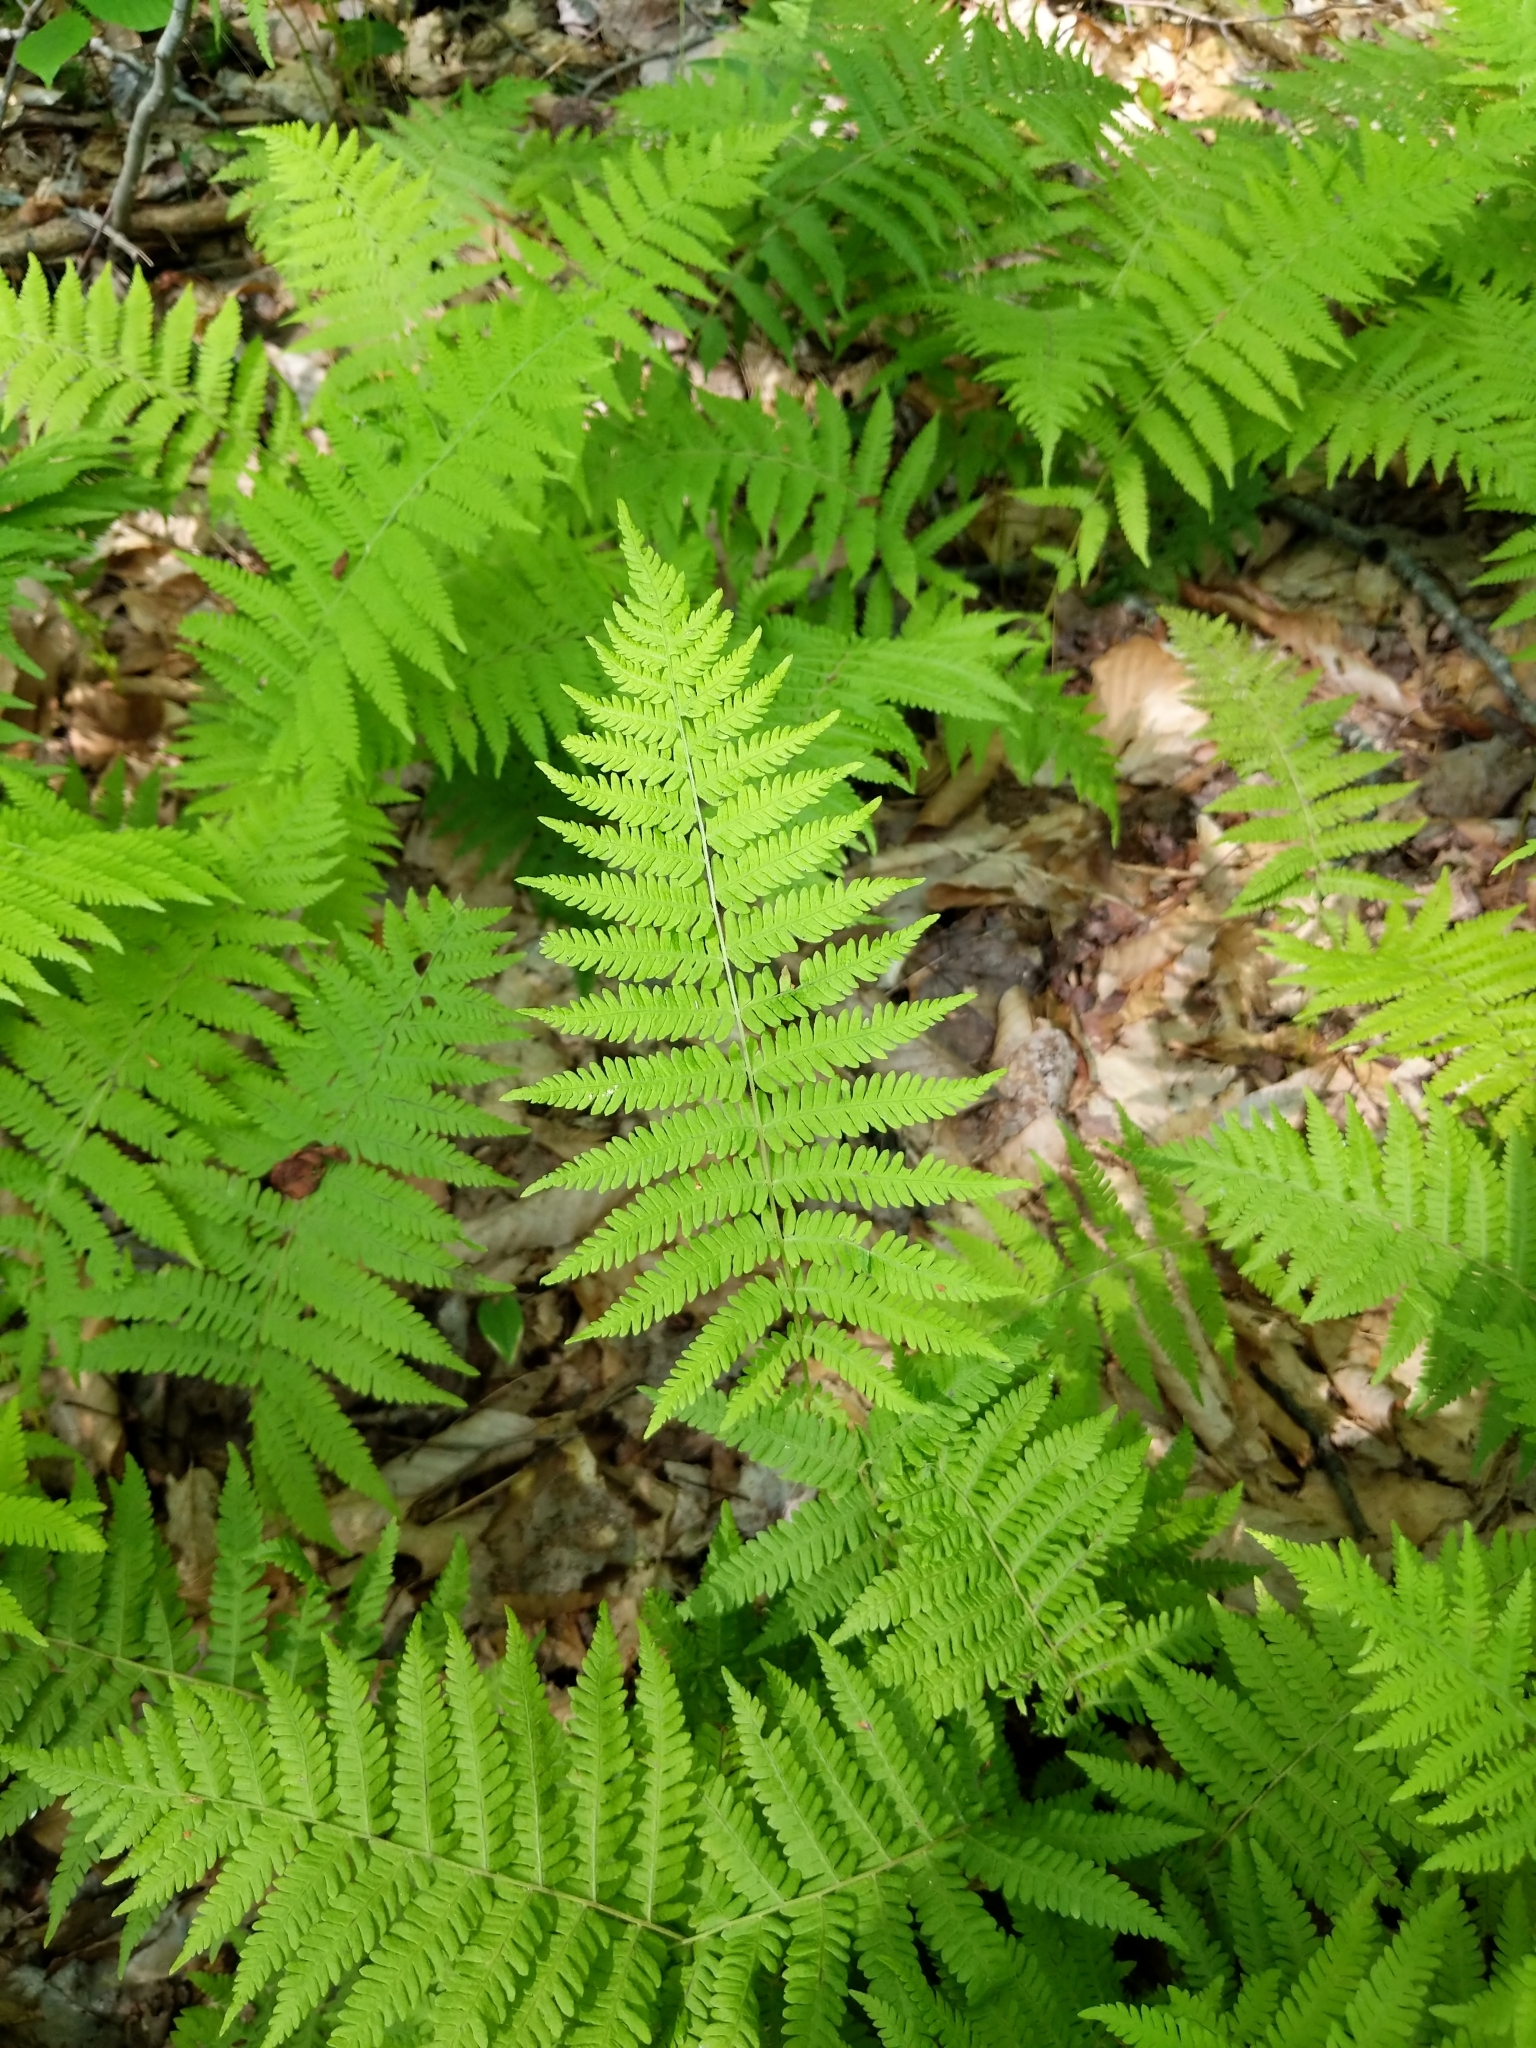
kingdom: Plantae
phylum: Tracheophyta
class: Polypodiopsida
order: Polypodiales
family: Thelypteridaceae
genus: Amauropelta
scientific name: Amauropelta noveboracensis
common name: New york fern
